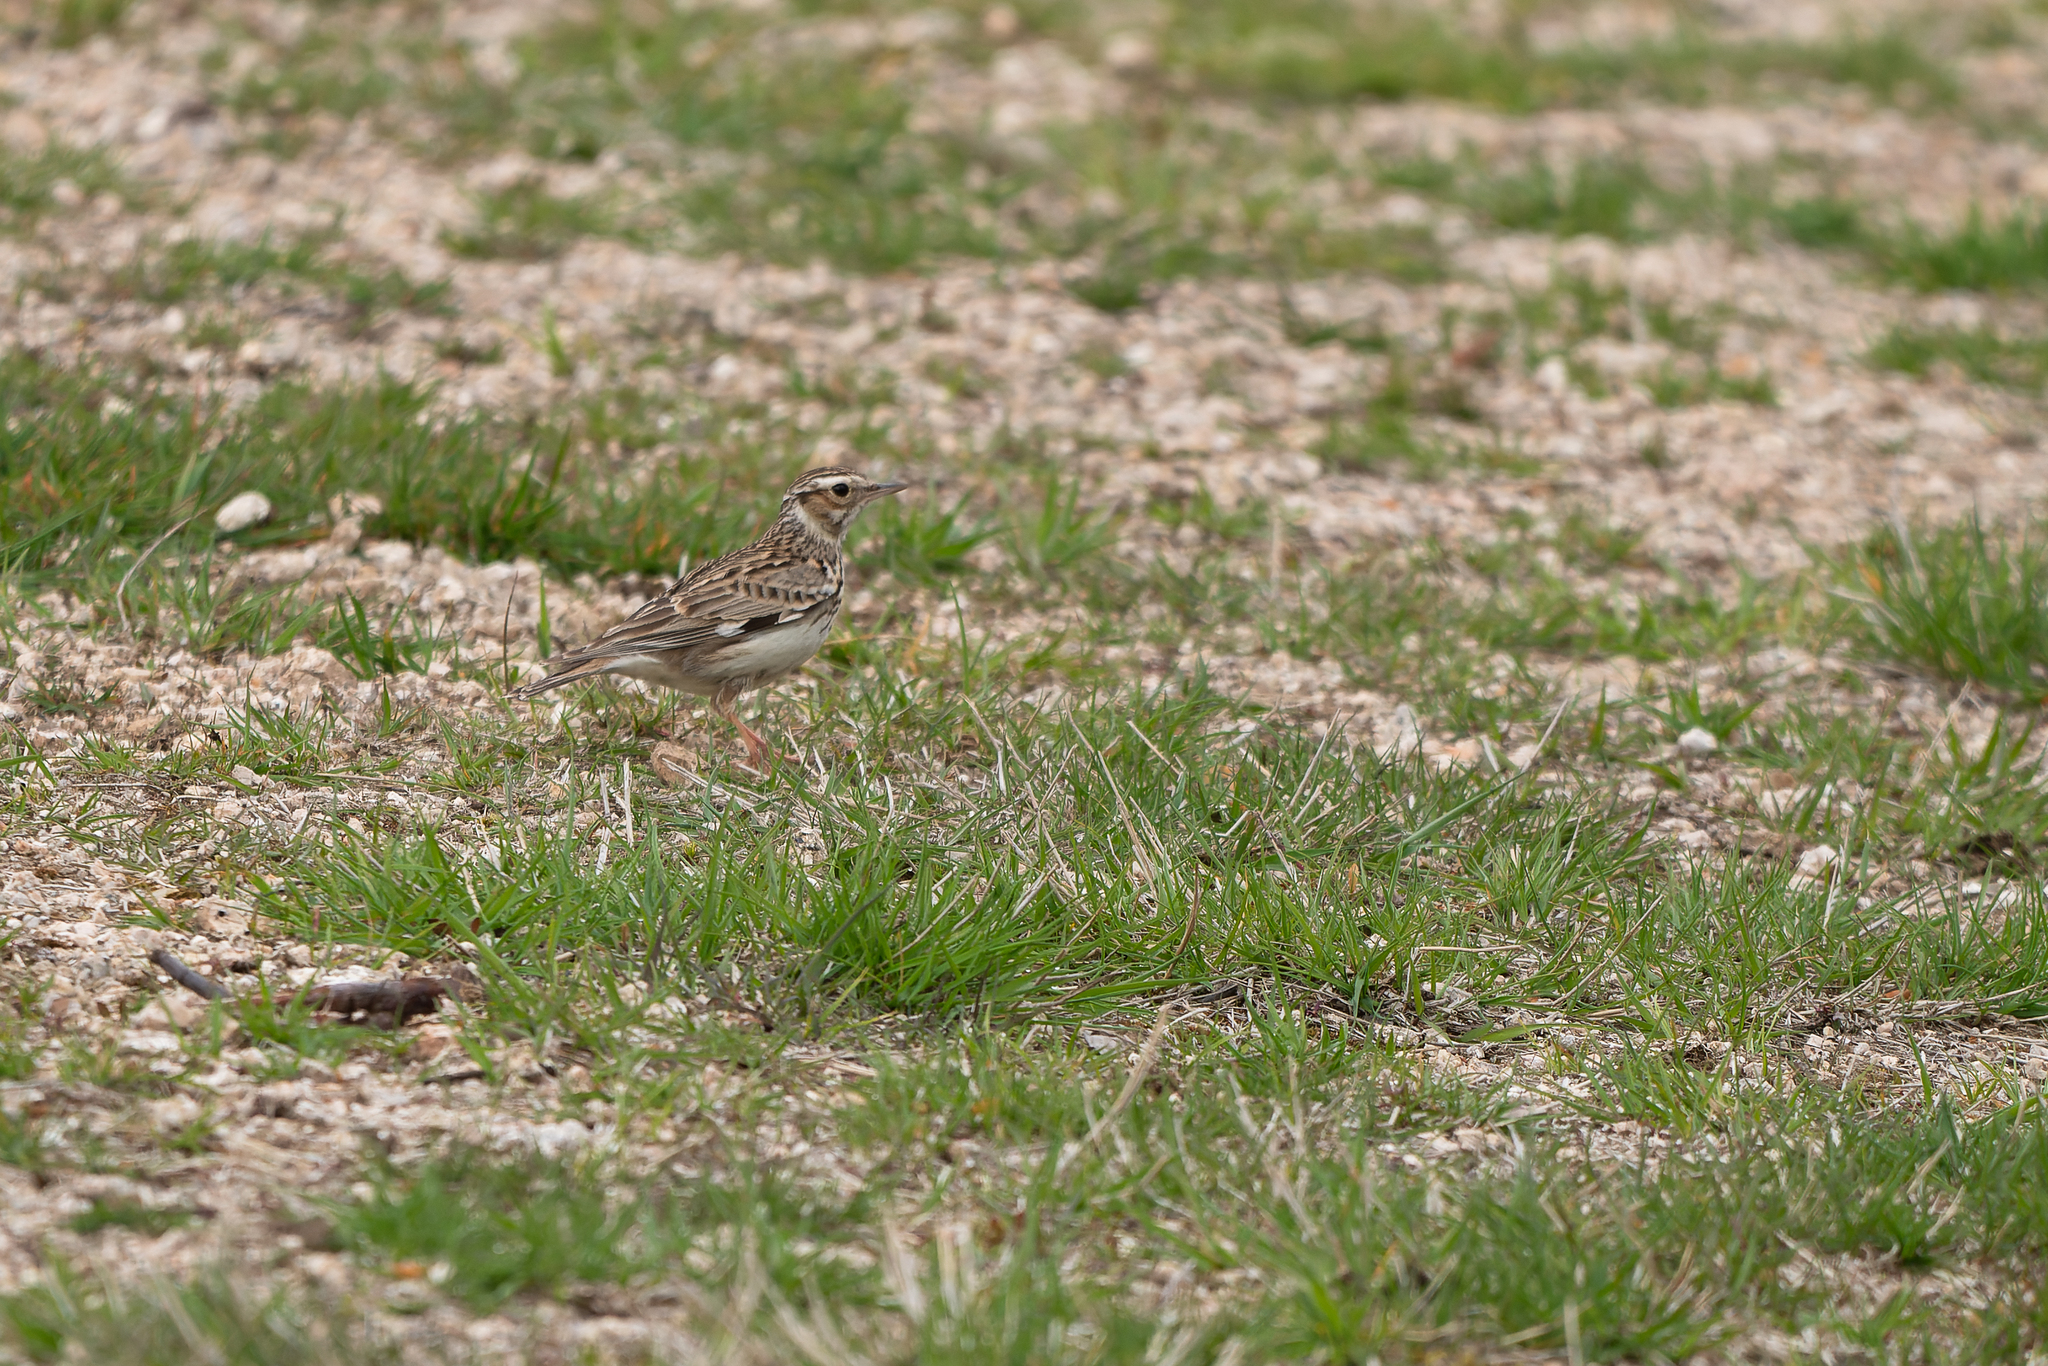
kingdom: Animalia
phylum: Chordata
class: Aves
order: Passeriformes
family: Alaudidae
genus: Lullula
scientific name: Lullula arborea
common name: Woodlark
